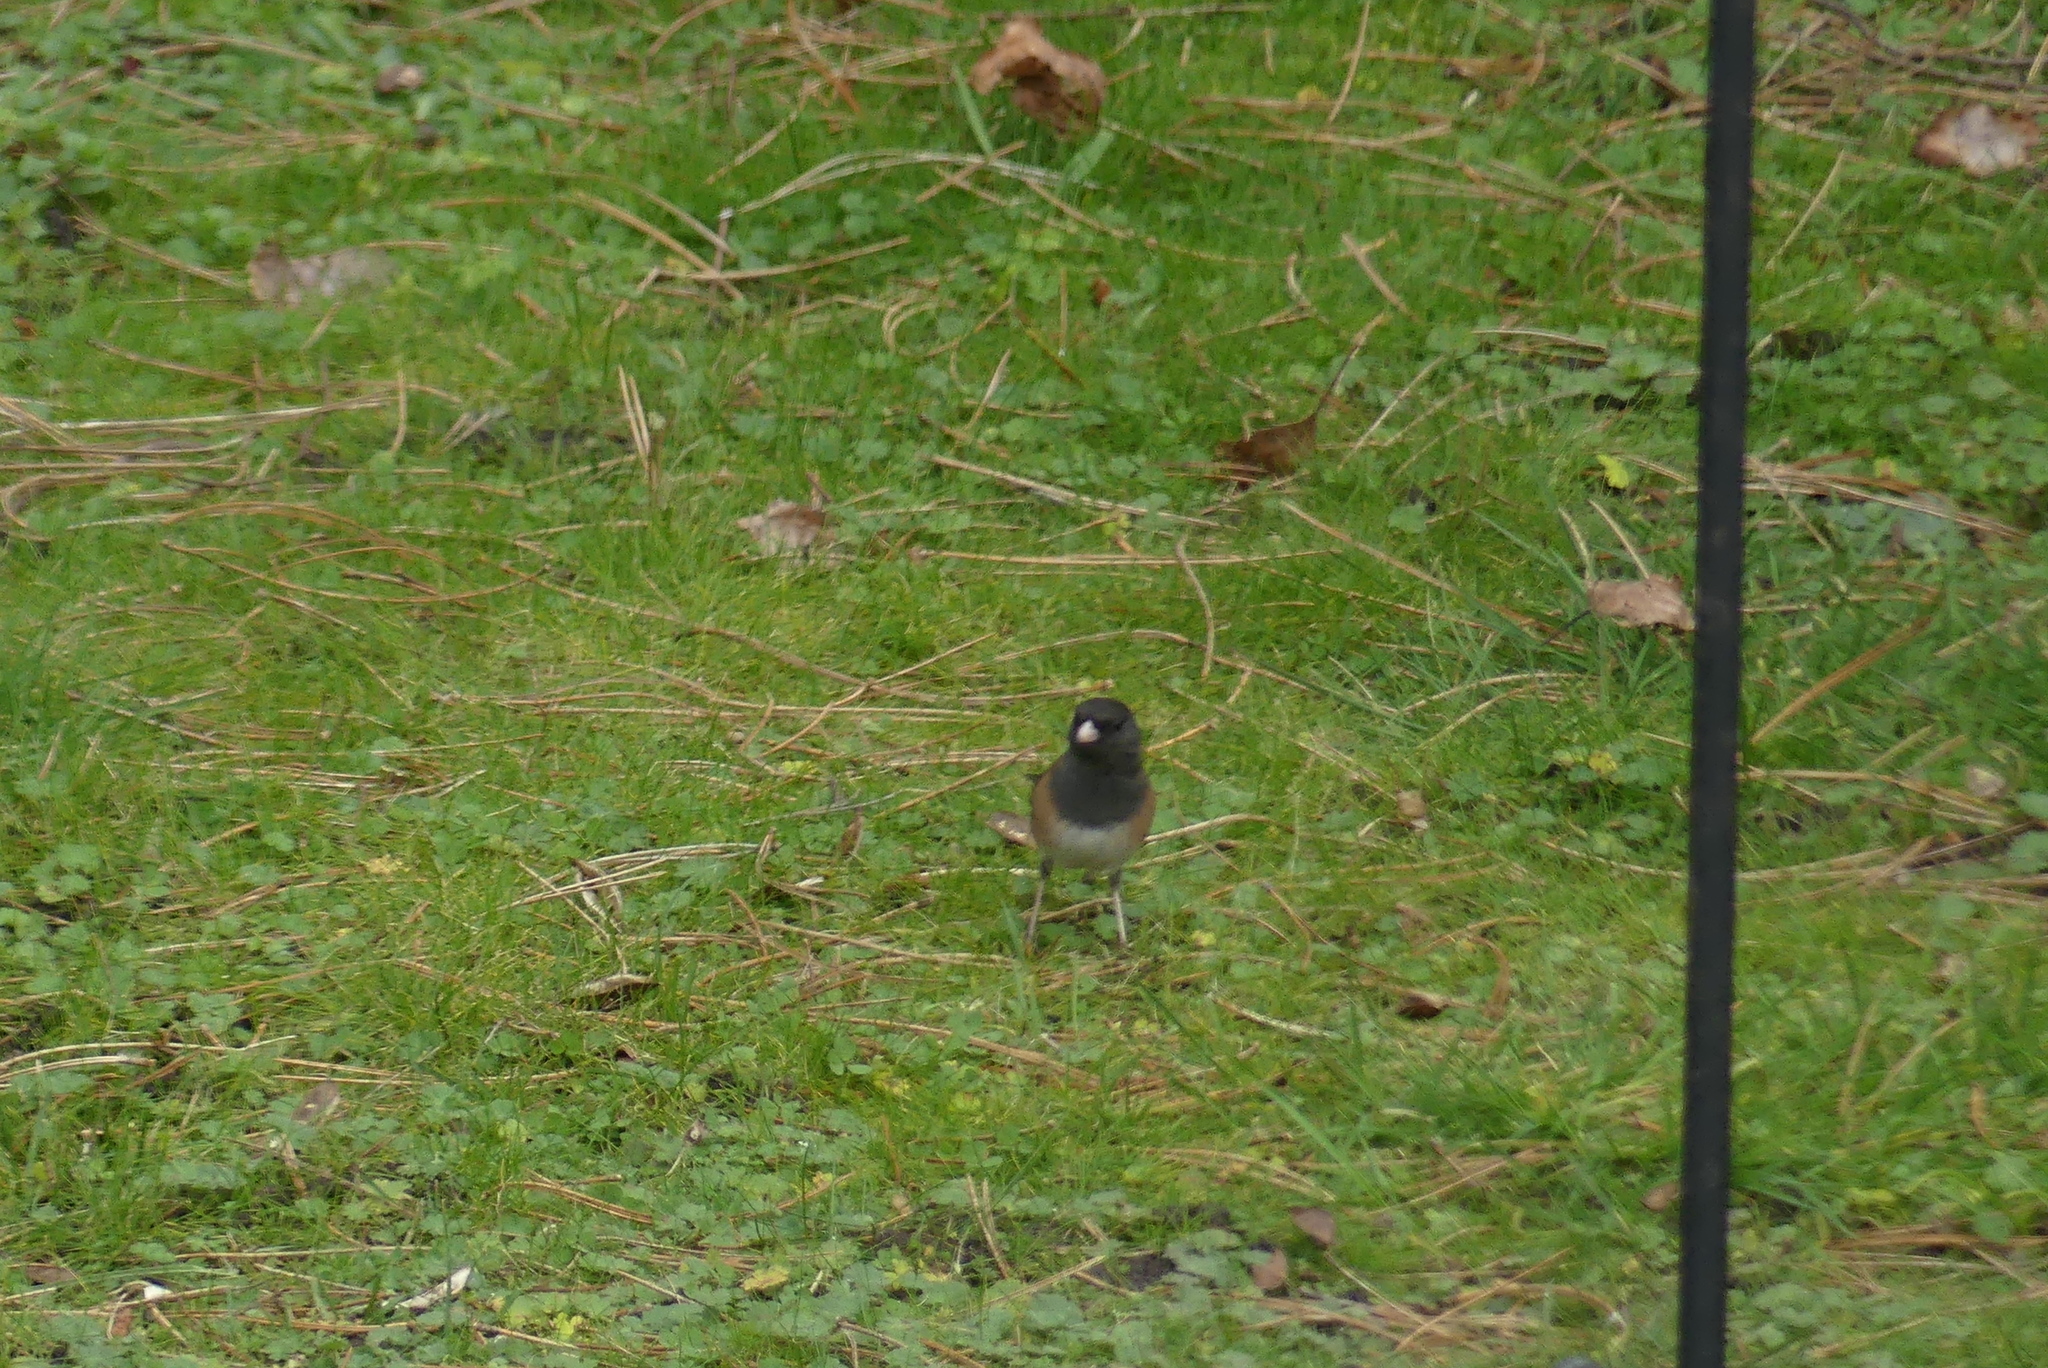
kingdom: Animalia
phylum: Chordata
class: Aves
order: Passeriformes
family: Passerellidae
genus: Junco
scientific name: Junco hyemalis
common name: Dark-eyed junco
